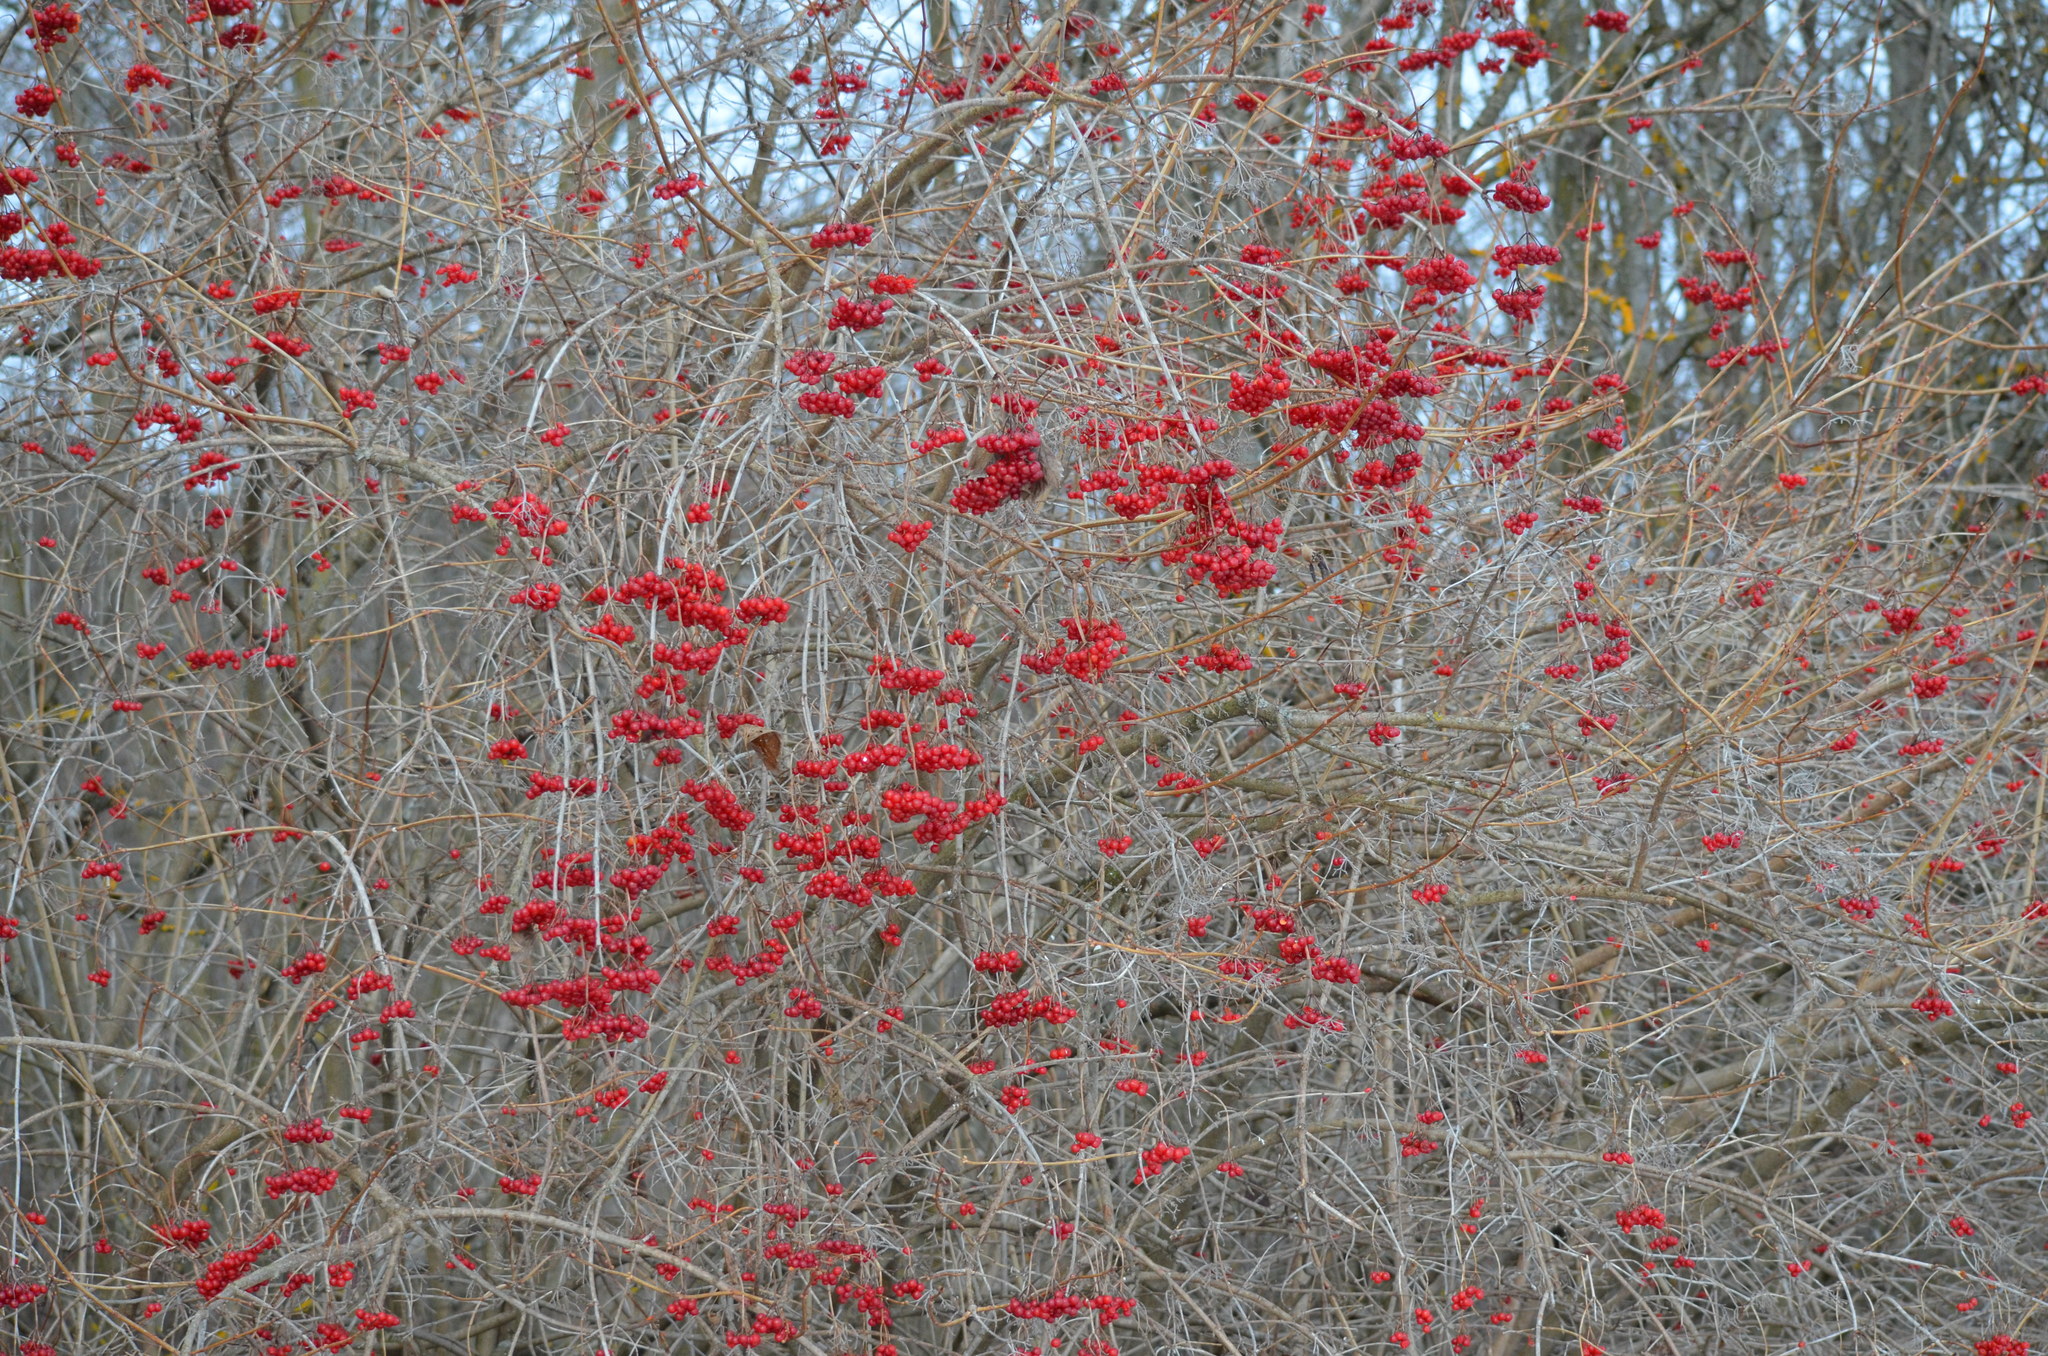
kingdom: Plantae
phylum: Tracheophyta
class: Magnoliopsida
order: Dipsacales
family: Viburnaceae
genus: Viburnum
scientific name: Viburnum opulus
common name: Guelder-rose
